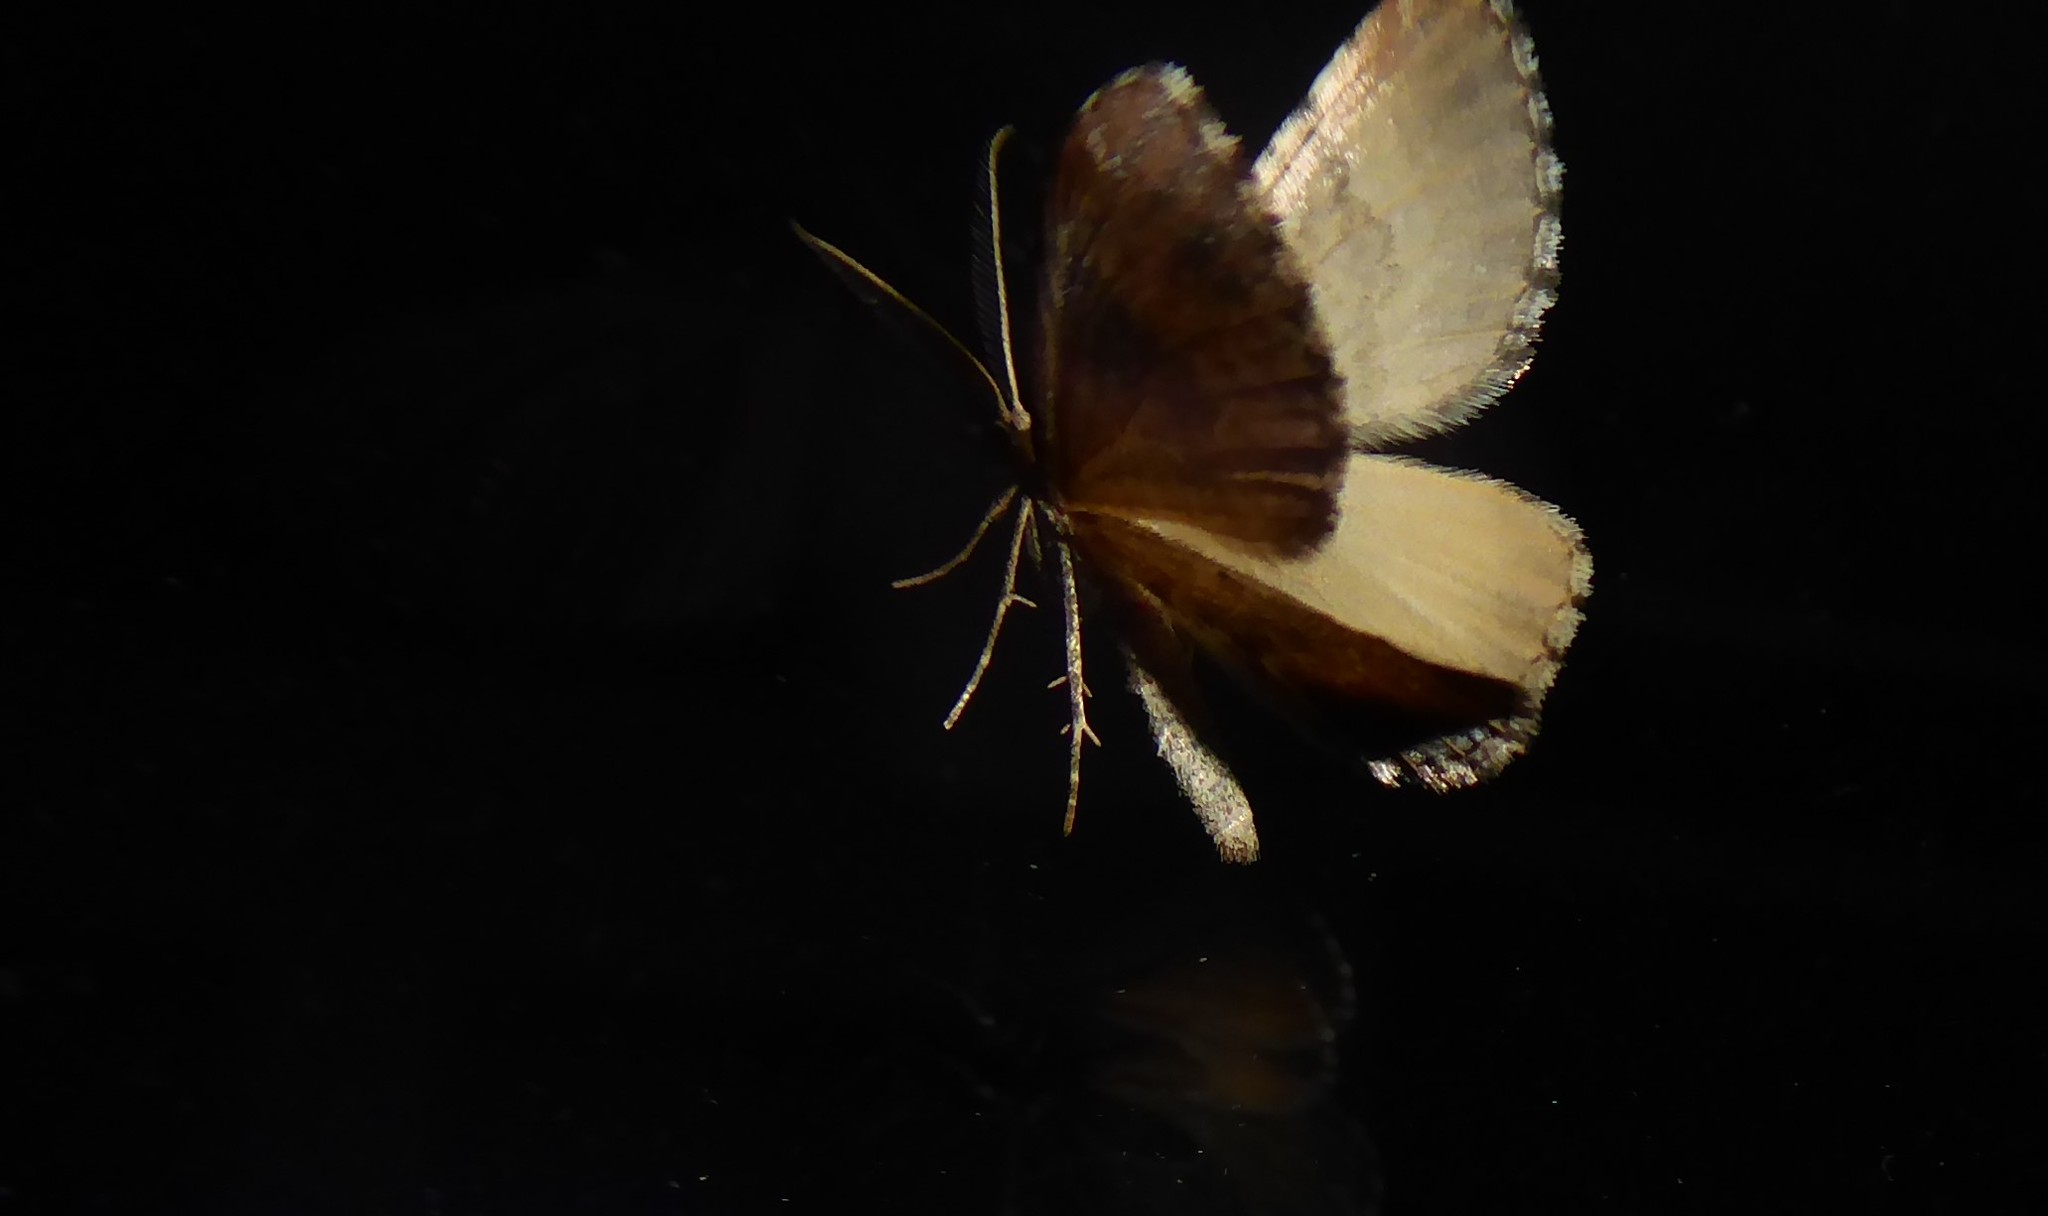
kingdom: Animalia
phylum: Arthropoda
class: Insecta
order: Lepidoptera
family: Geometridae
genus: Asaphodes
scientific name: Asaphodes aegrota
